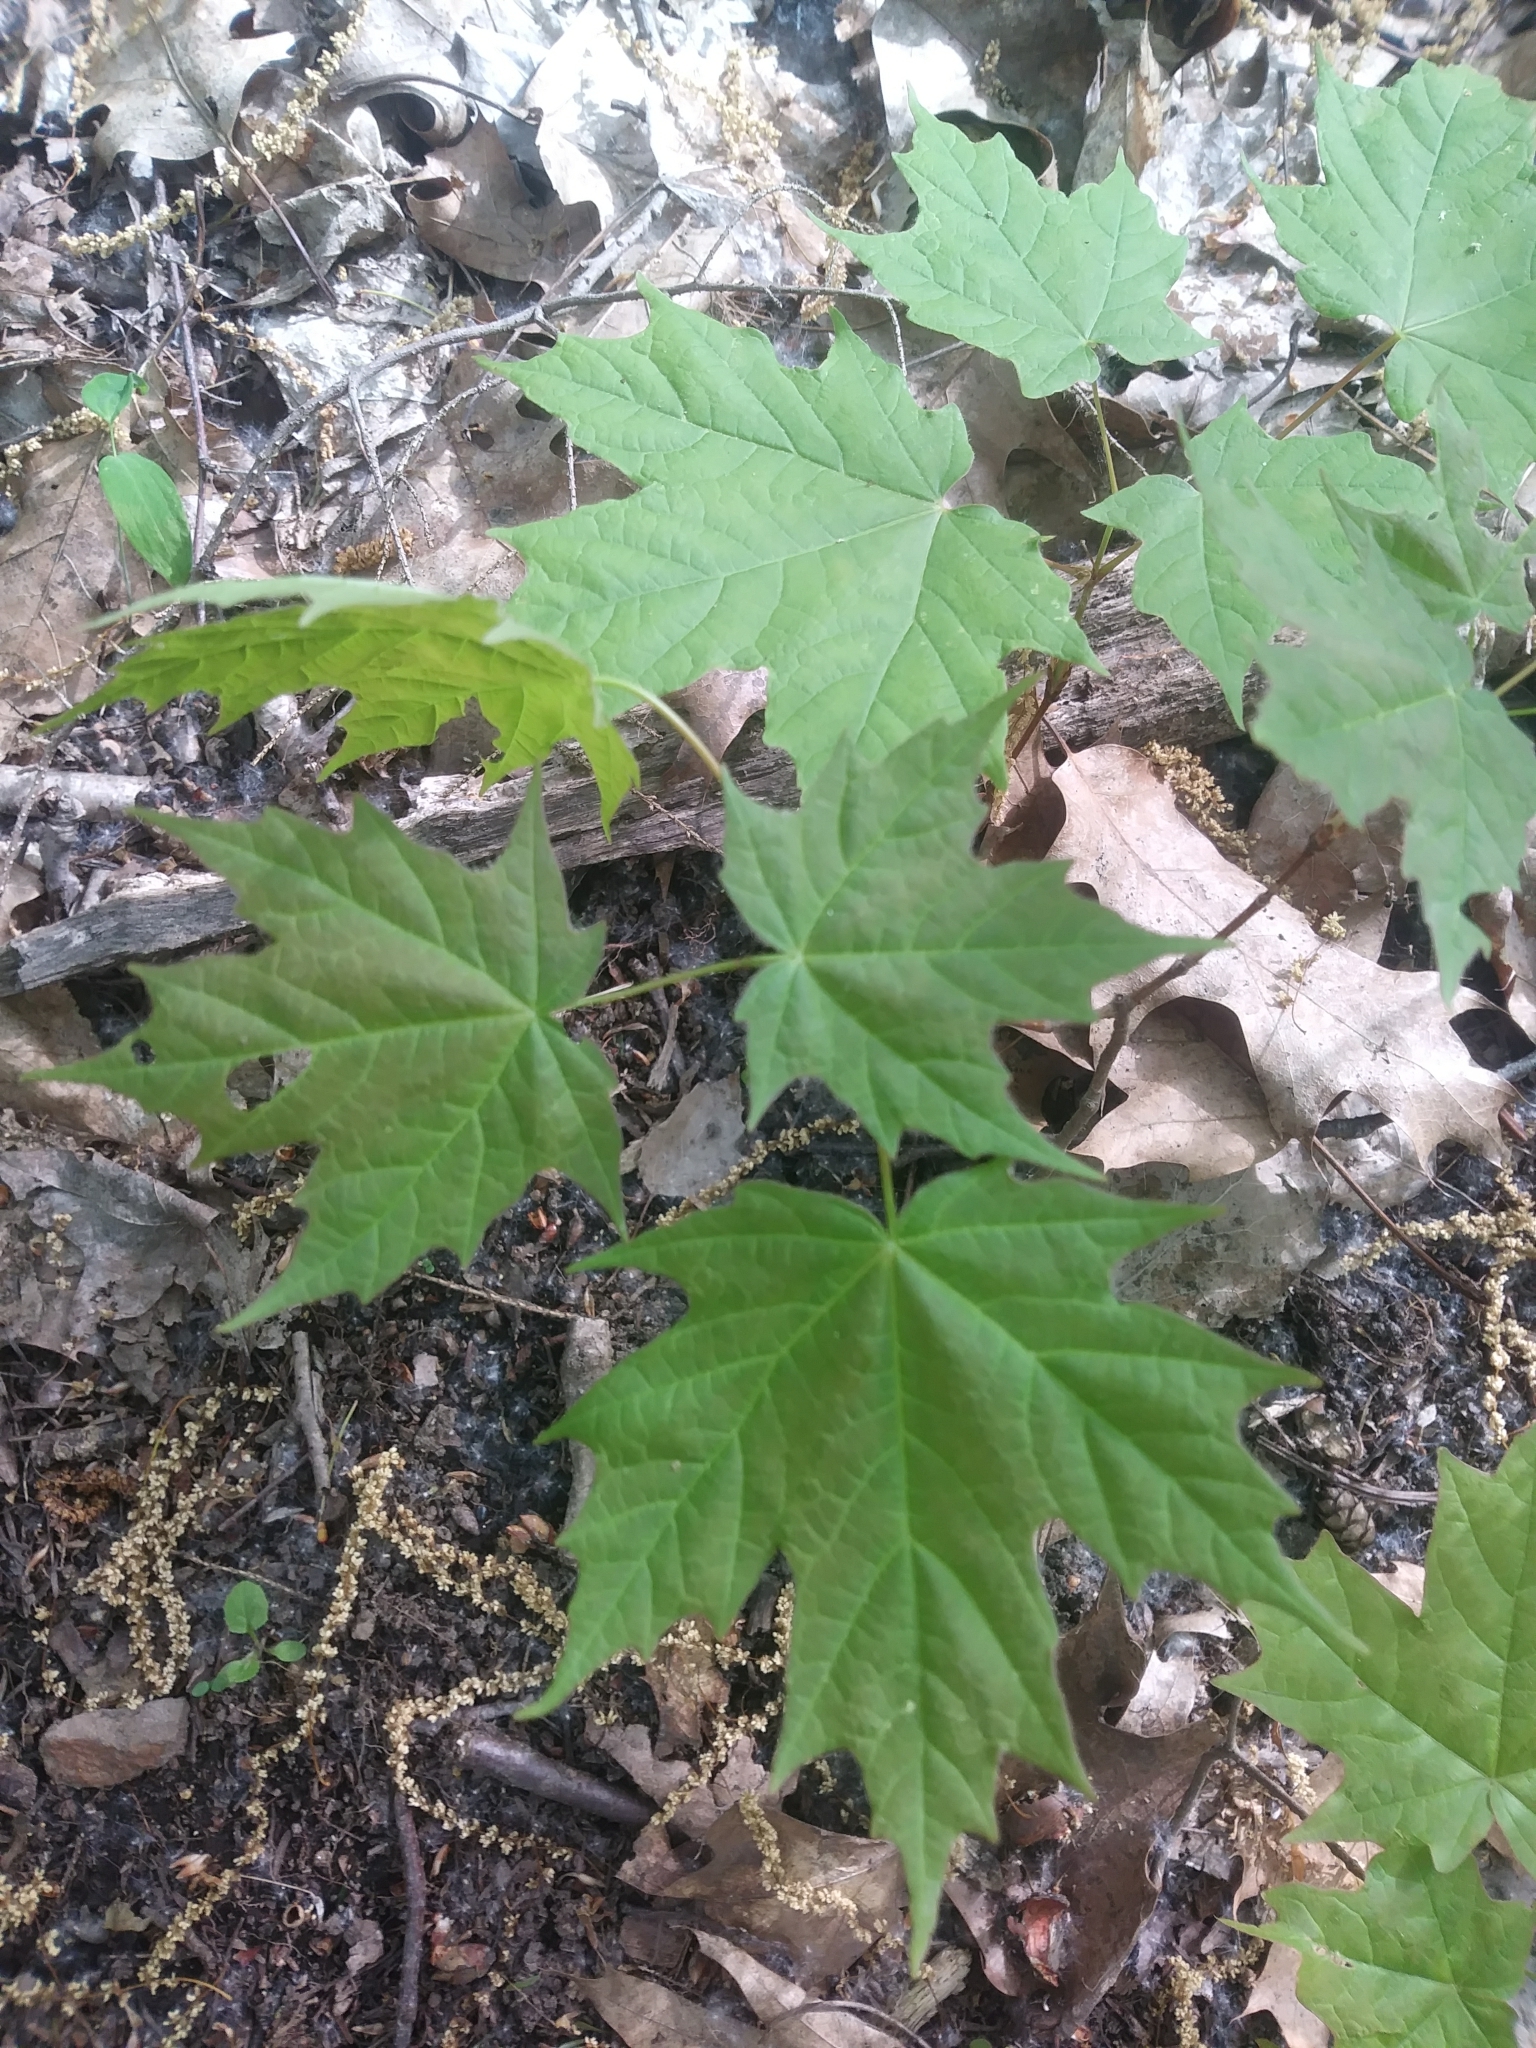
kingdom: Plantae
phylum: Tracheophyta
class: Magnoliopsida
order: Sapindales
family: Sapindaceae
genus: Acer
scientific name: Acer saccharum
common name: Sugar maple
